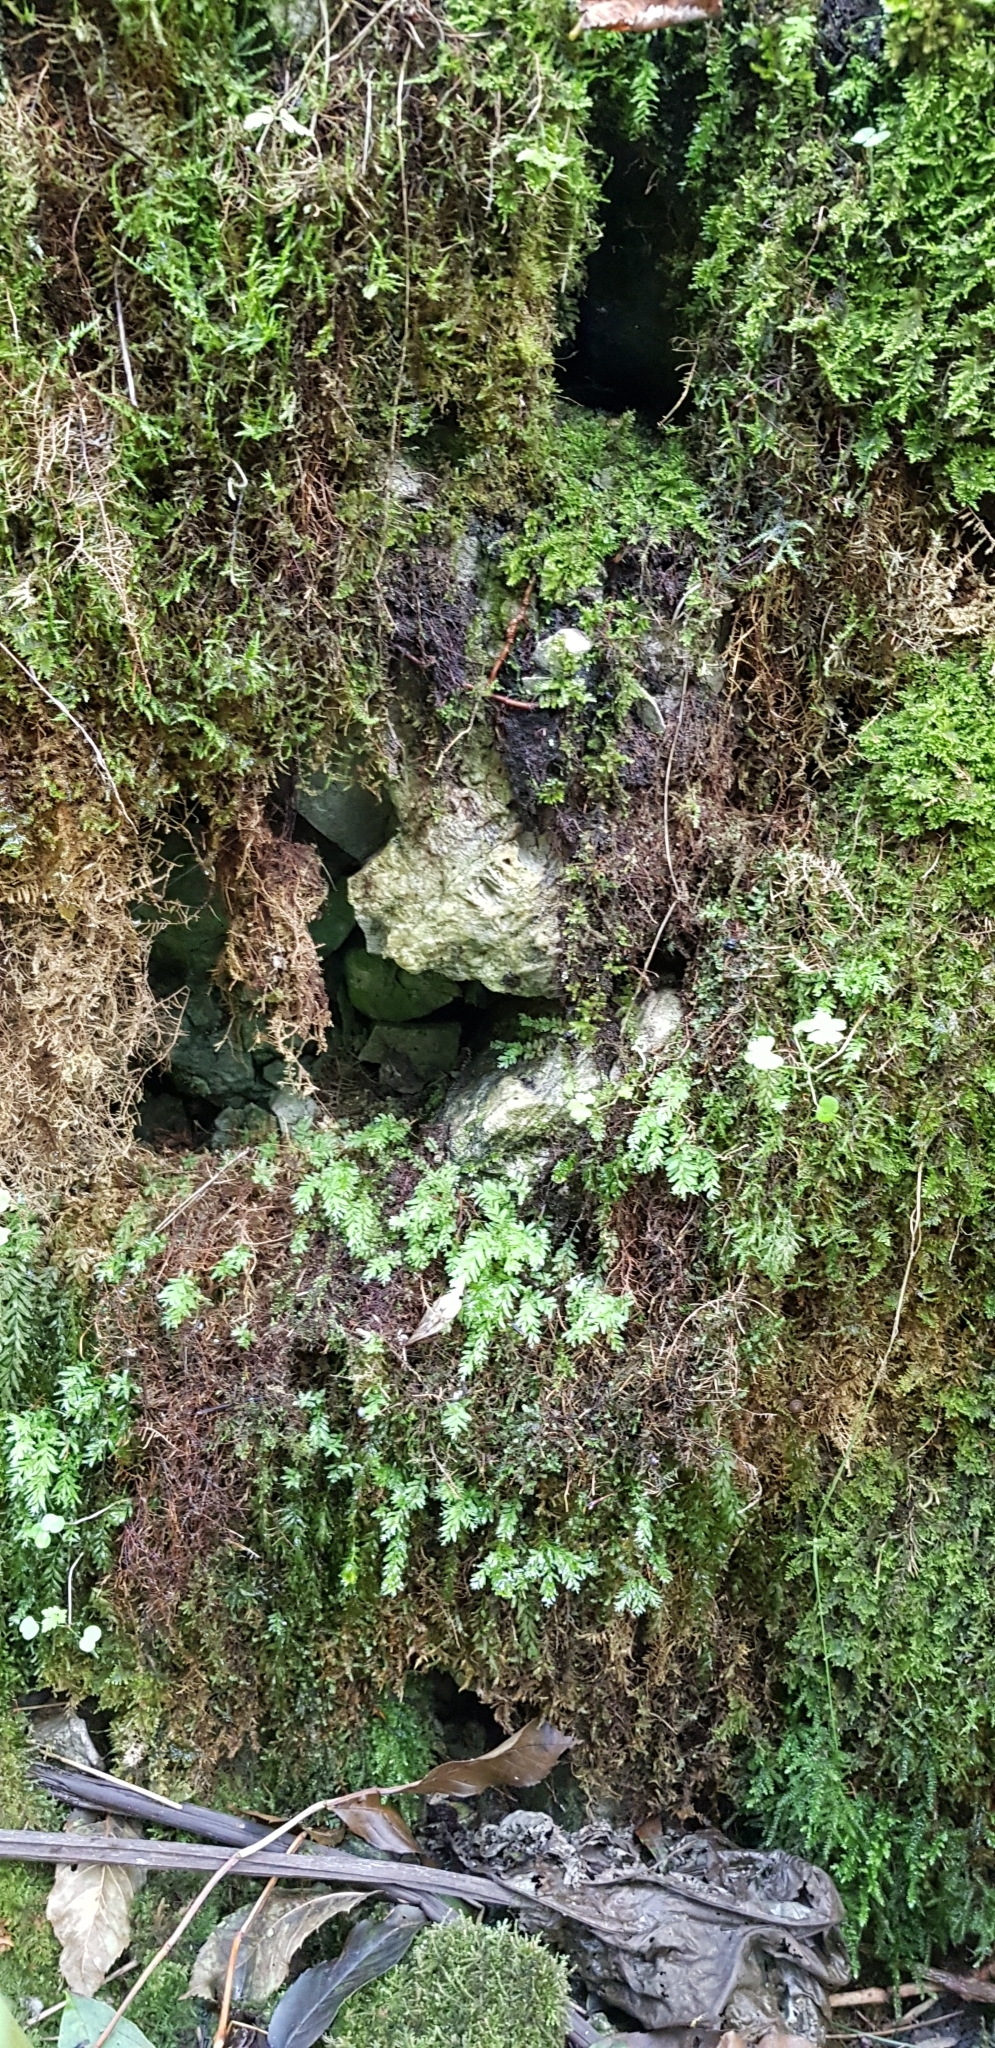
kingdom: Plantae
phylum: Bryophyta
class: Bryopsida
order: Bryales
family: Mniaceae
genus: Plagiomnium
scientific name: Plagiomnium undulatum
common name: Hart's-tongue thyme-moss
